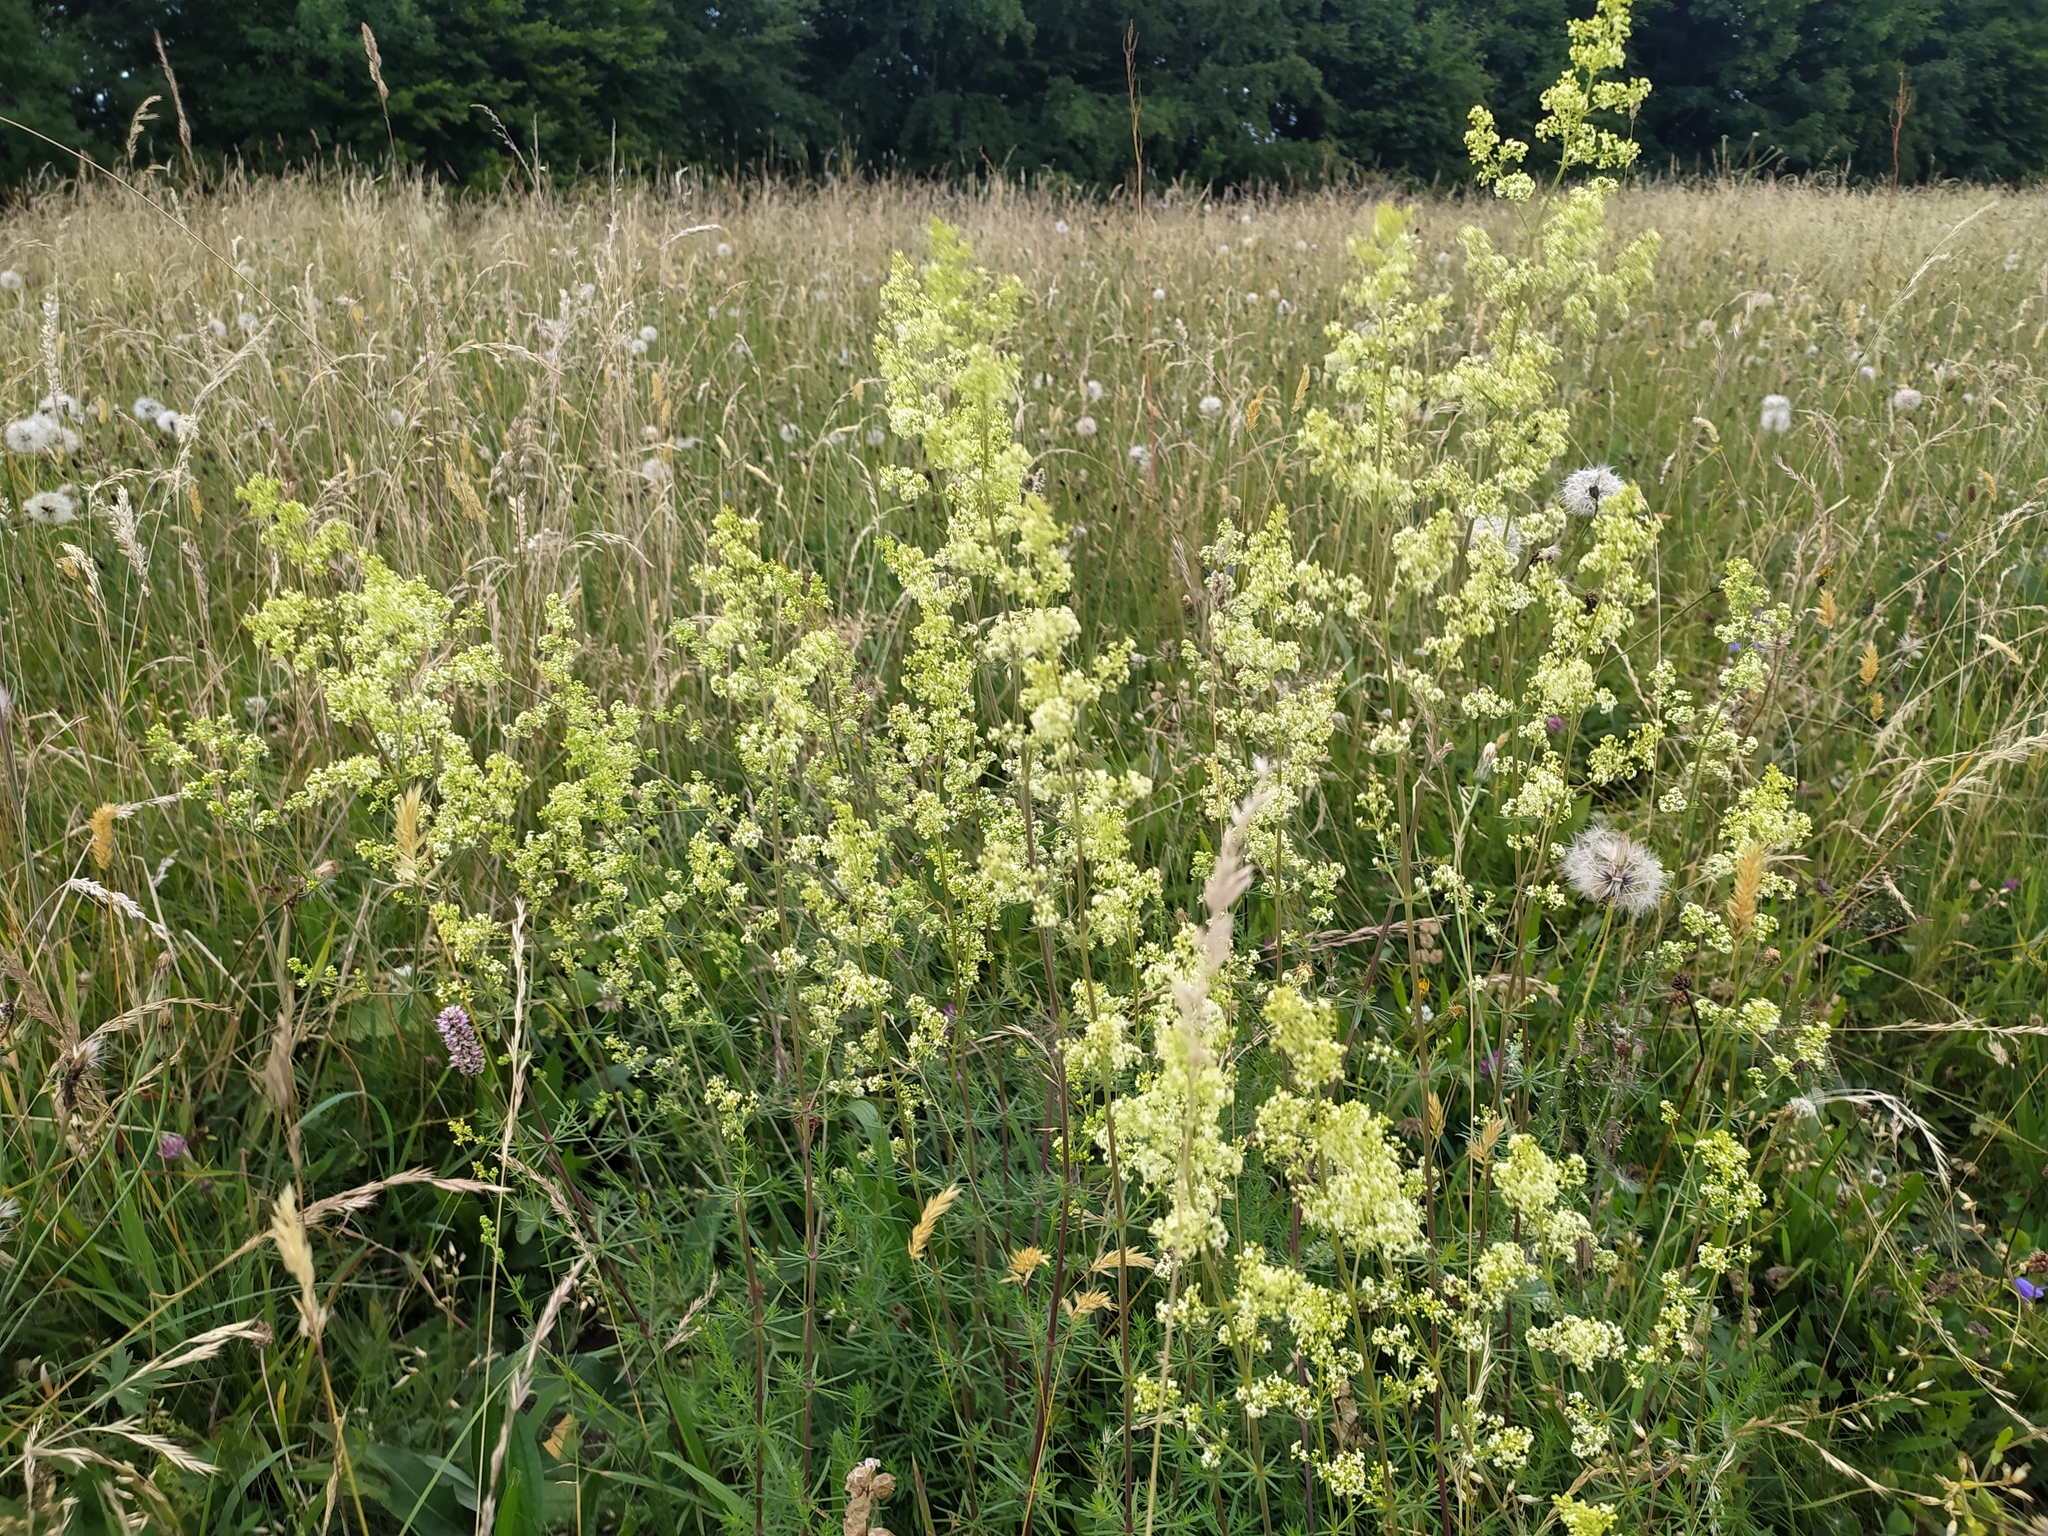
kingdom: Plantae
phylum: Tracheophyta
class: Magnoliopsida
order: Gentianales
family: Rubiaceae
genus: Galium
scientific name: Galium pomeranicum
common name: Bedstraw
